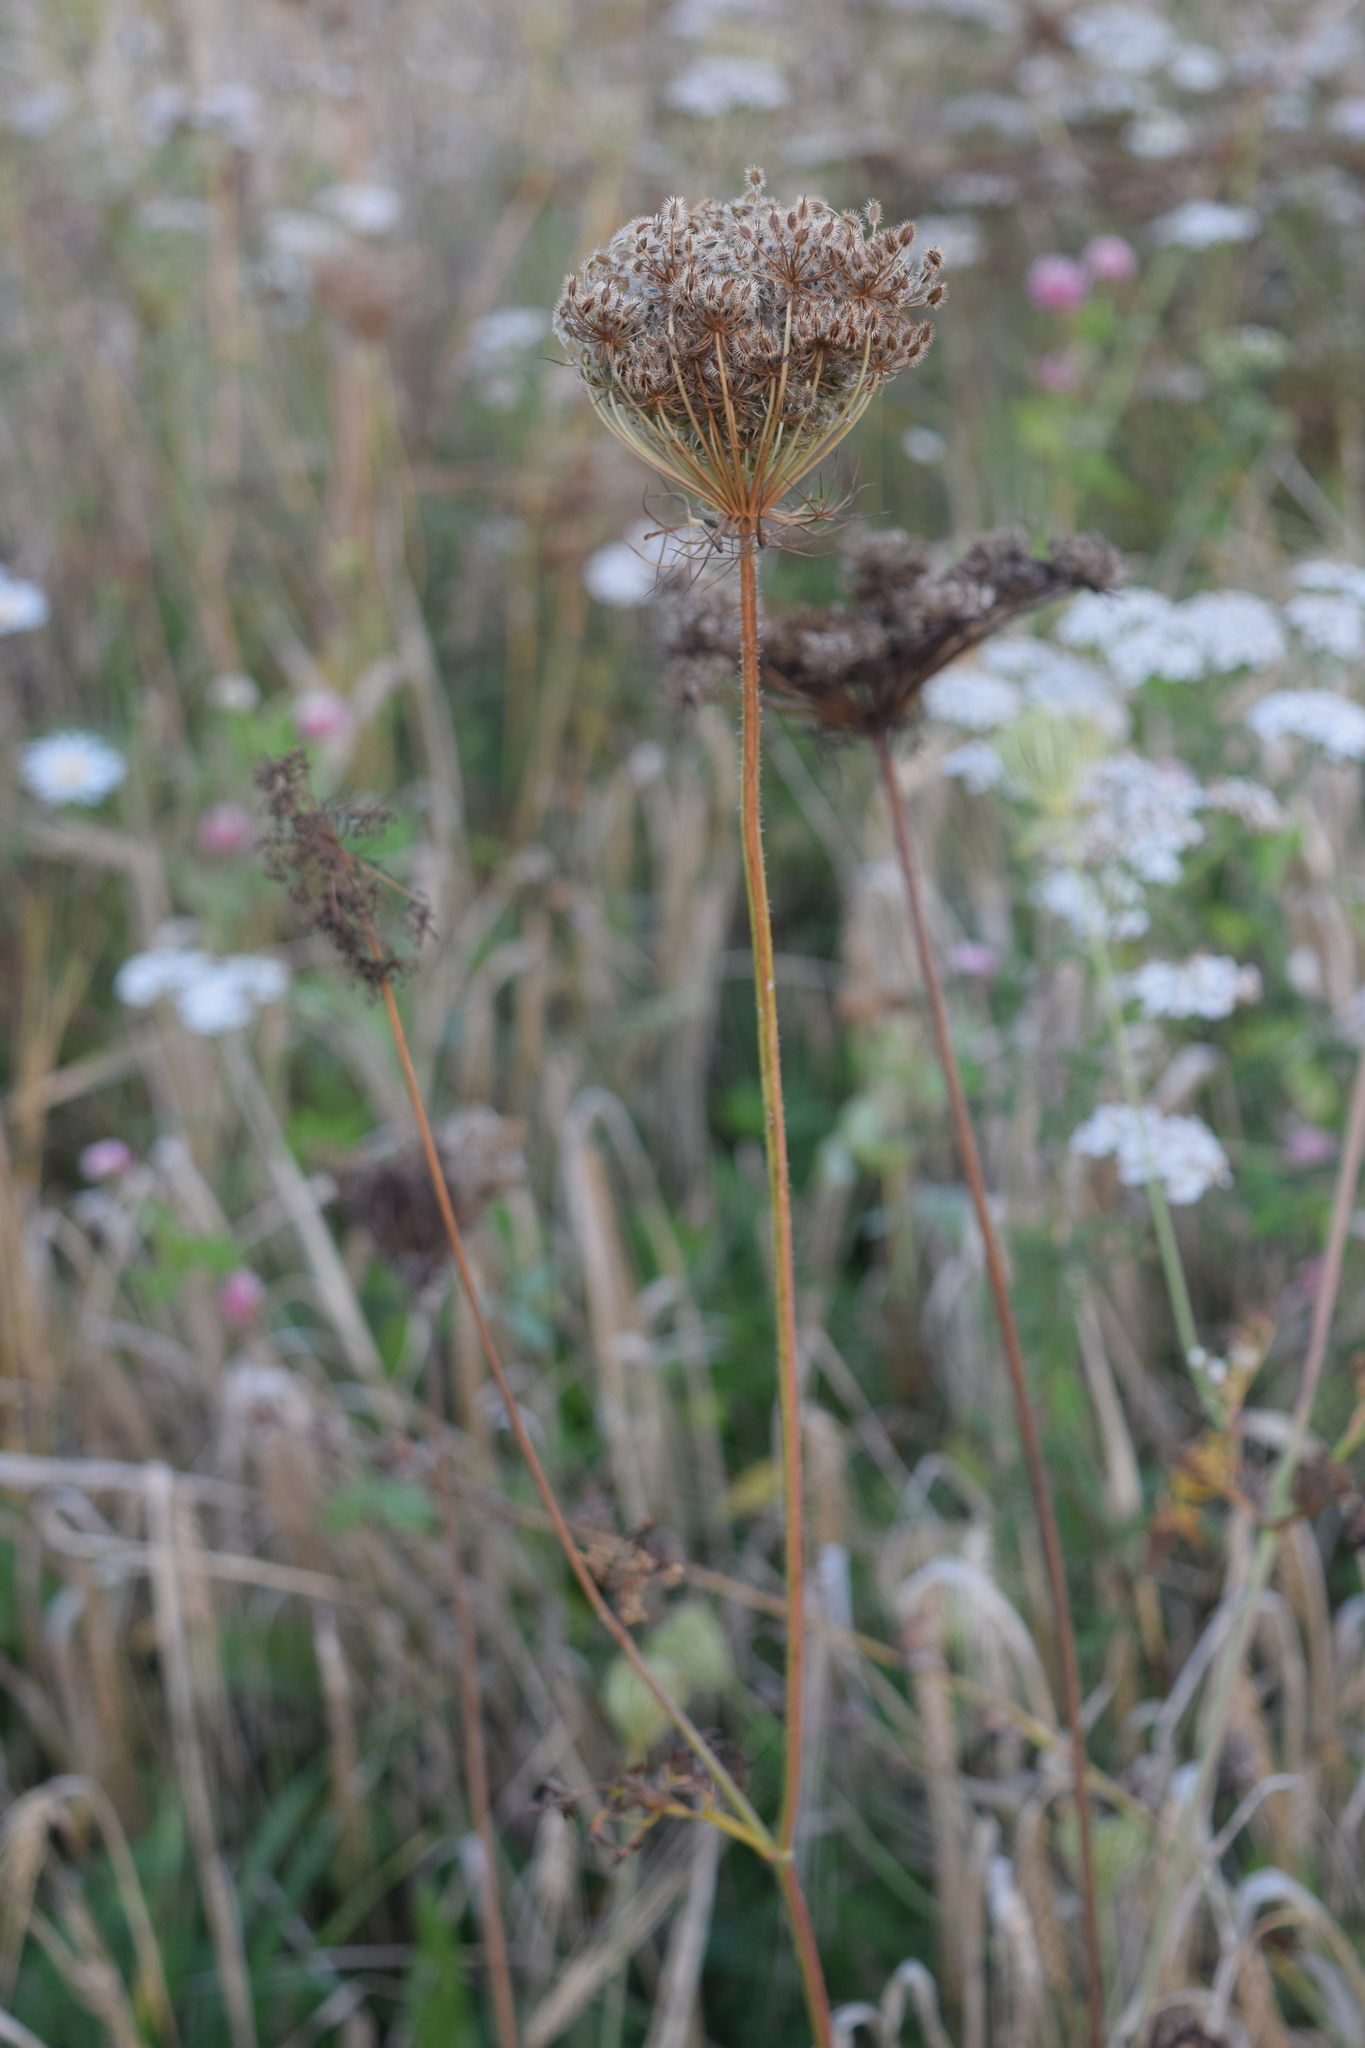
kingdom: Plantae
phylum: Tracheophyta
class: Magnoliopsida
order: Apiales
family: Apiaceae
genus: Daucus
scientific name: Daucus carota
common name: Wild carrot
